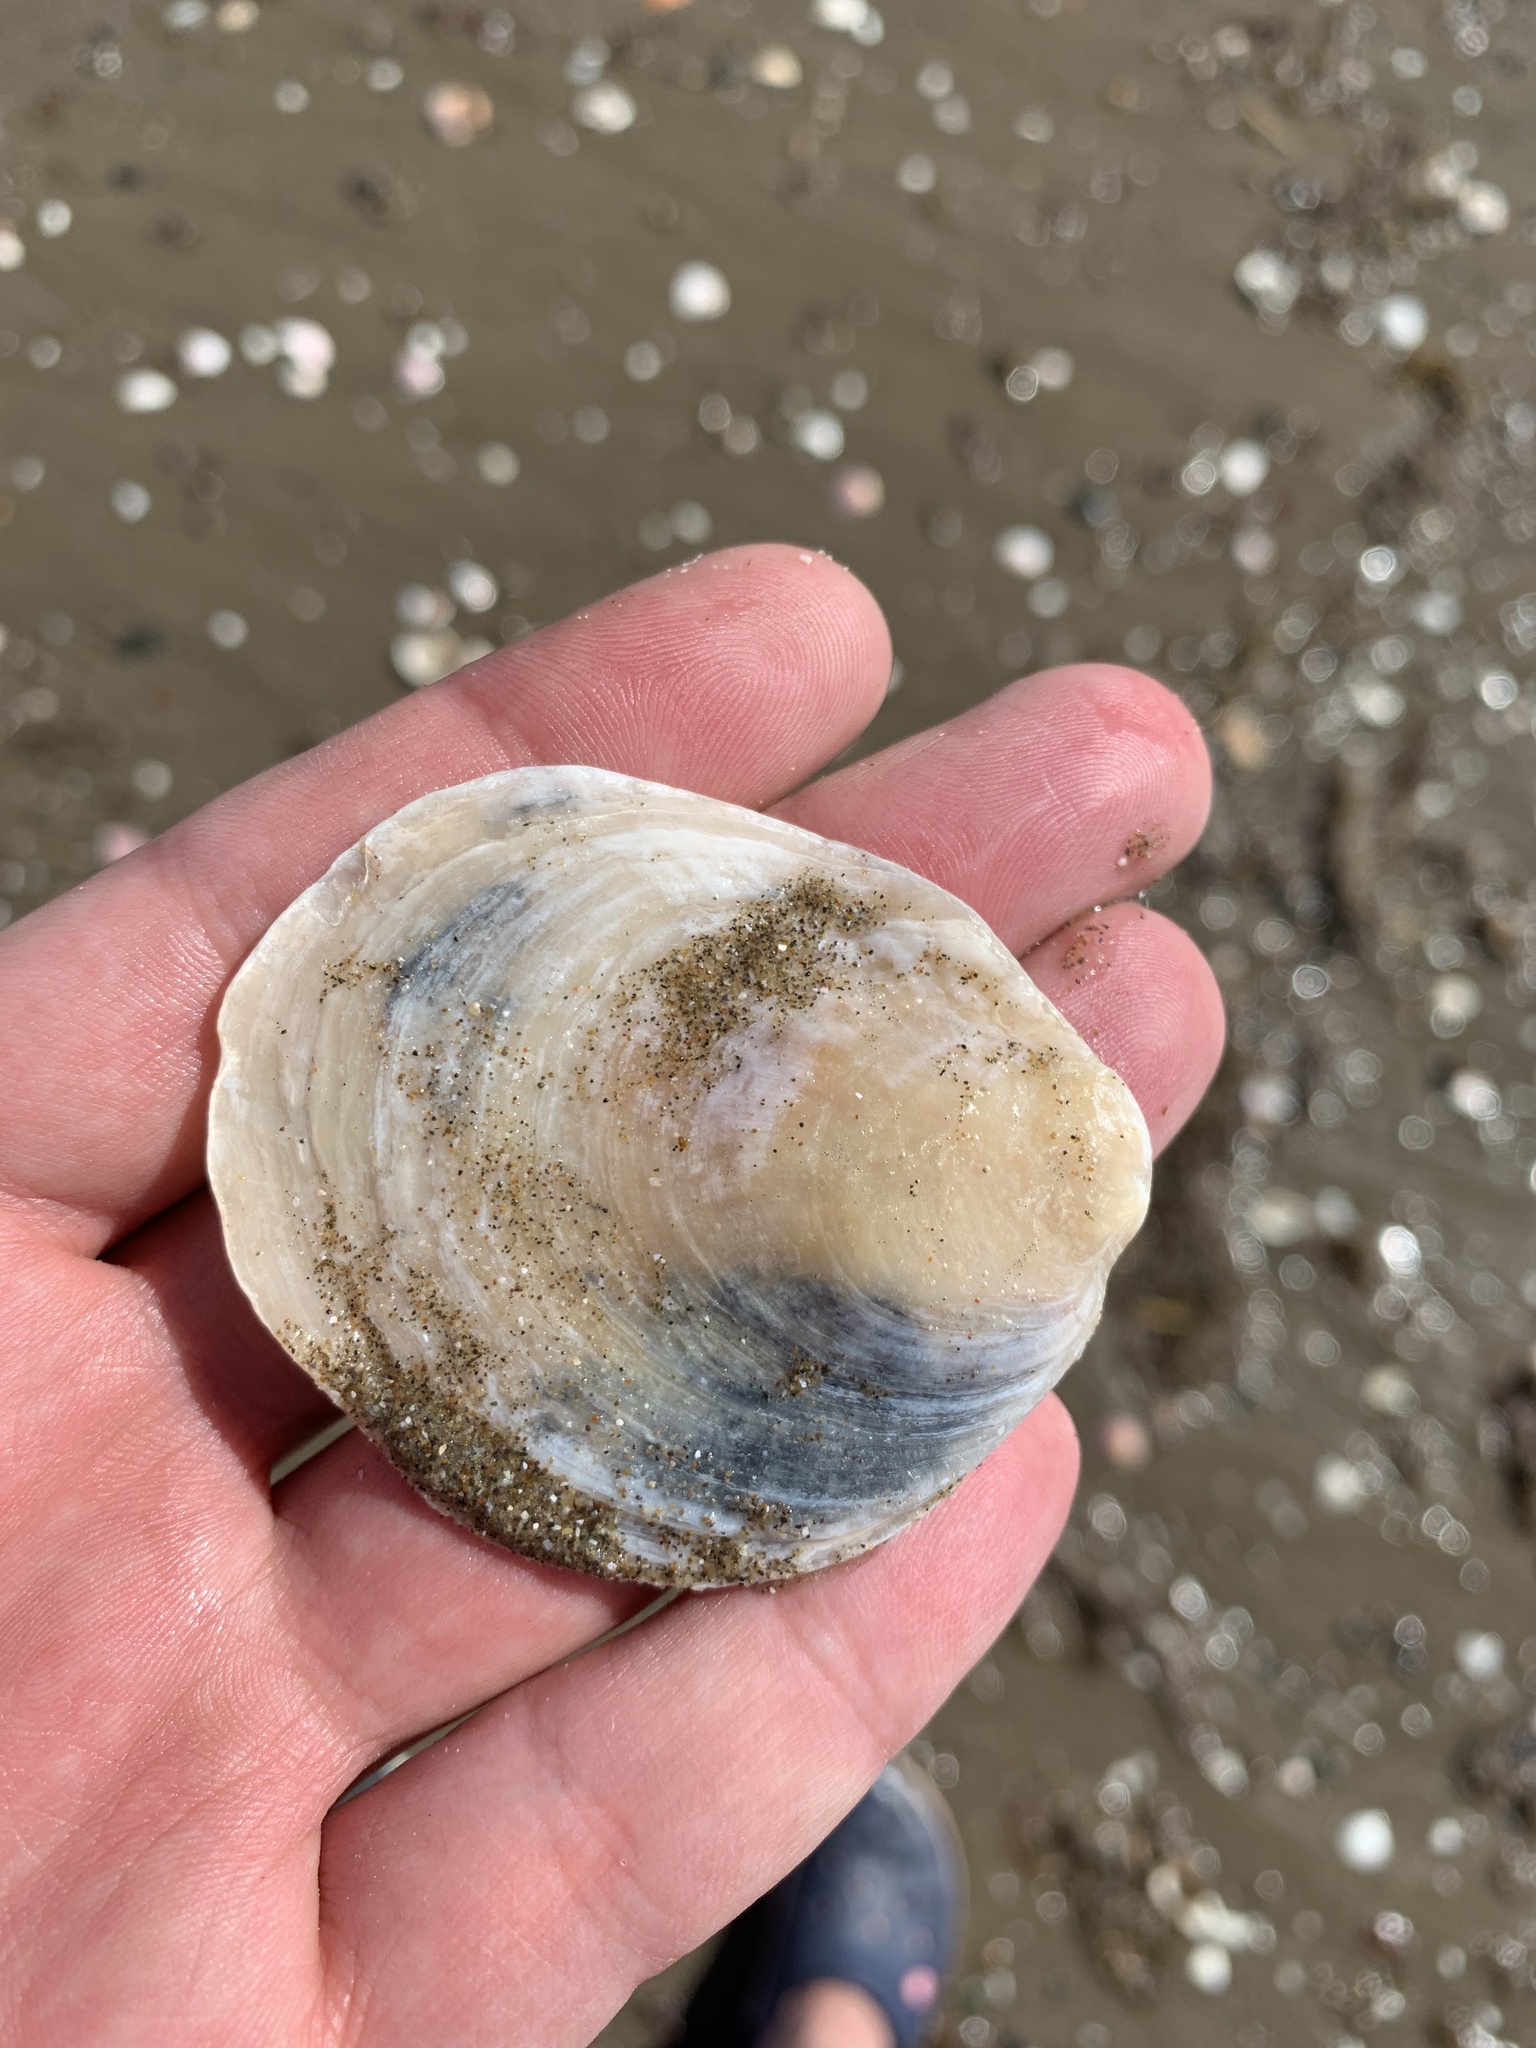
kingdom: Animalia
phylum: Mollusca
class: Bivalvia
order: Ostreida
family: Ostreidae
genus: Ostrea
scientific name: Ostrea puelchana
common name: Argentine flat oyster
